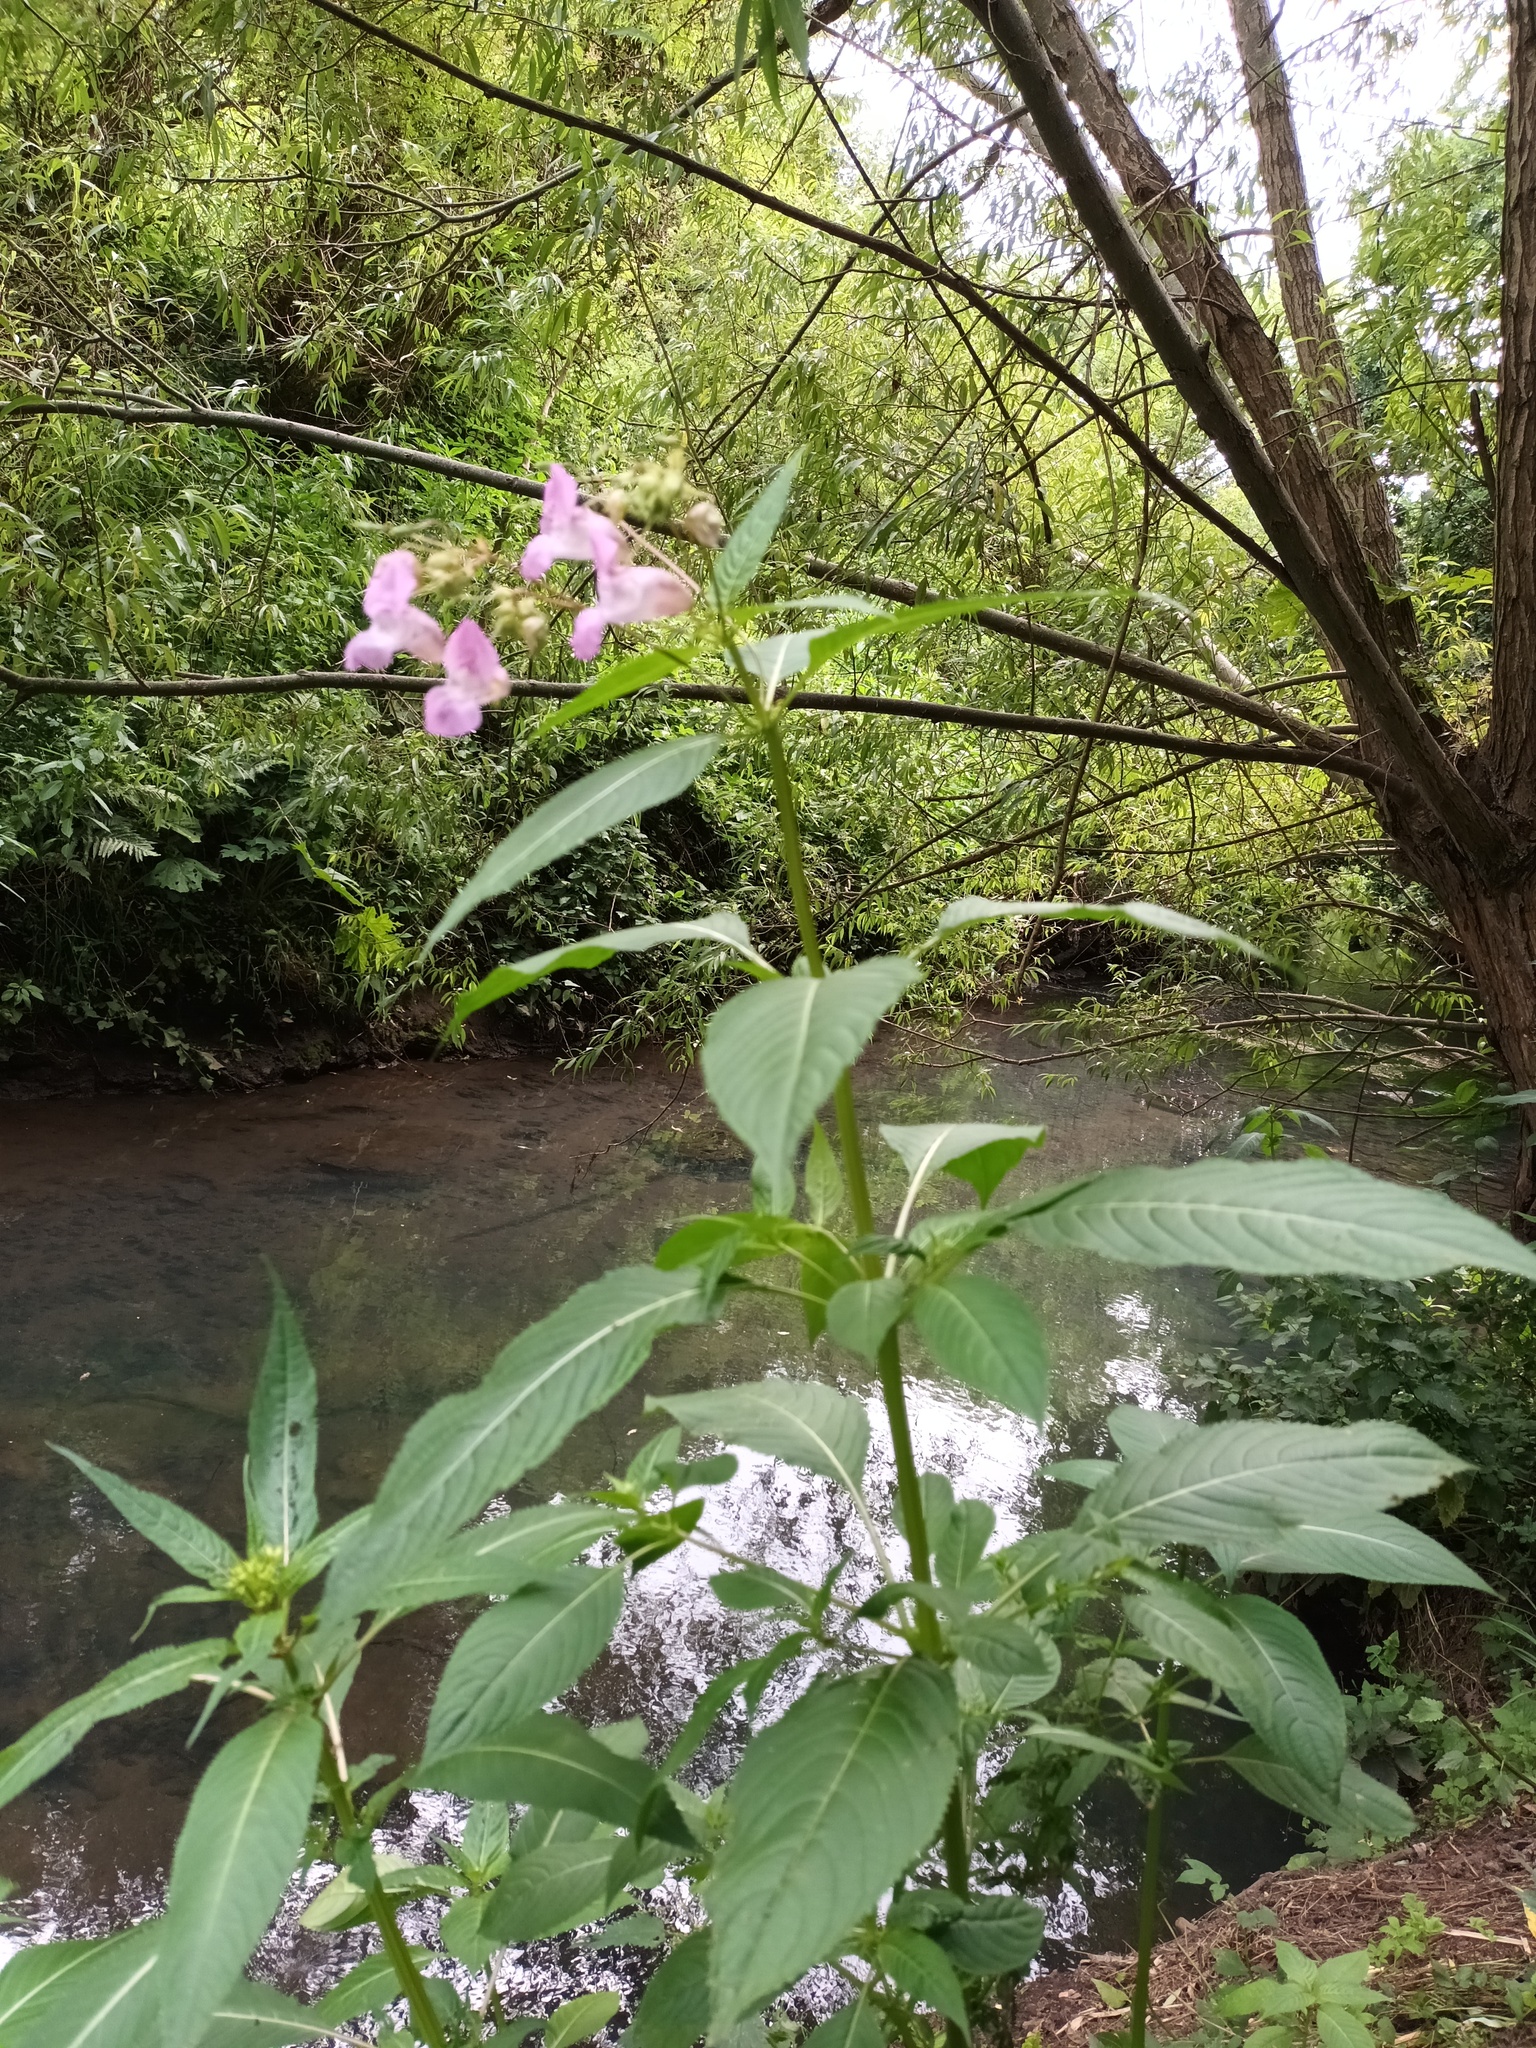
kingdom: Plantae
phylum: Tracheophyta
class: Magnoliopsida
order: Ericales
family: Balsaminaceae
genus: Impatiens
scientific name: Impatiens glandulifera
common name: Himalayan balsam
